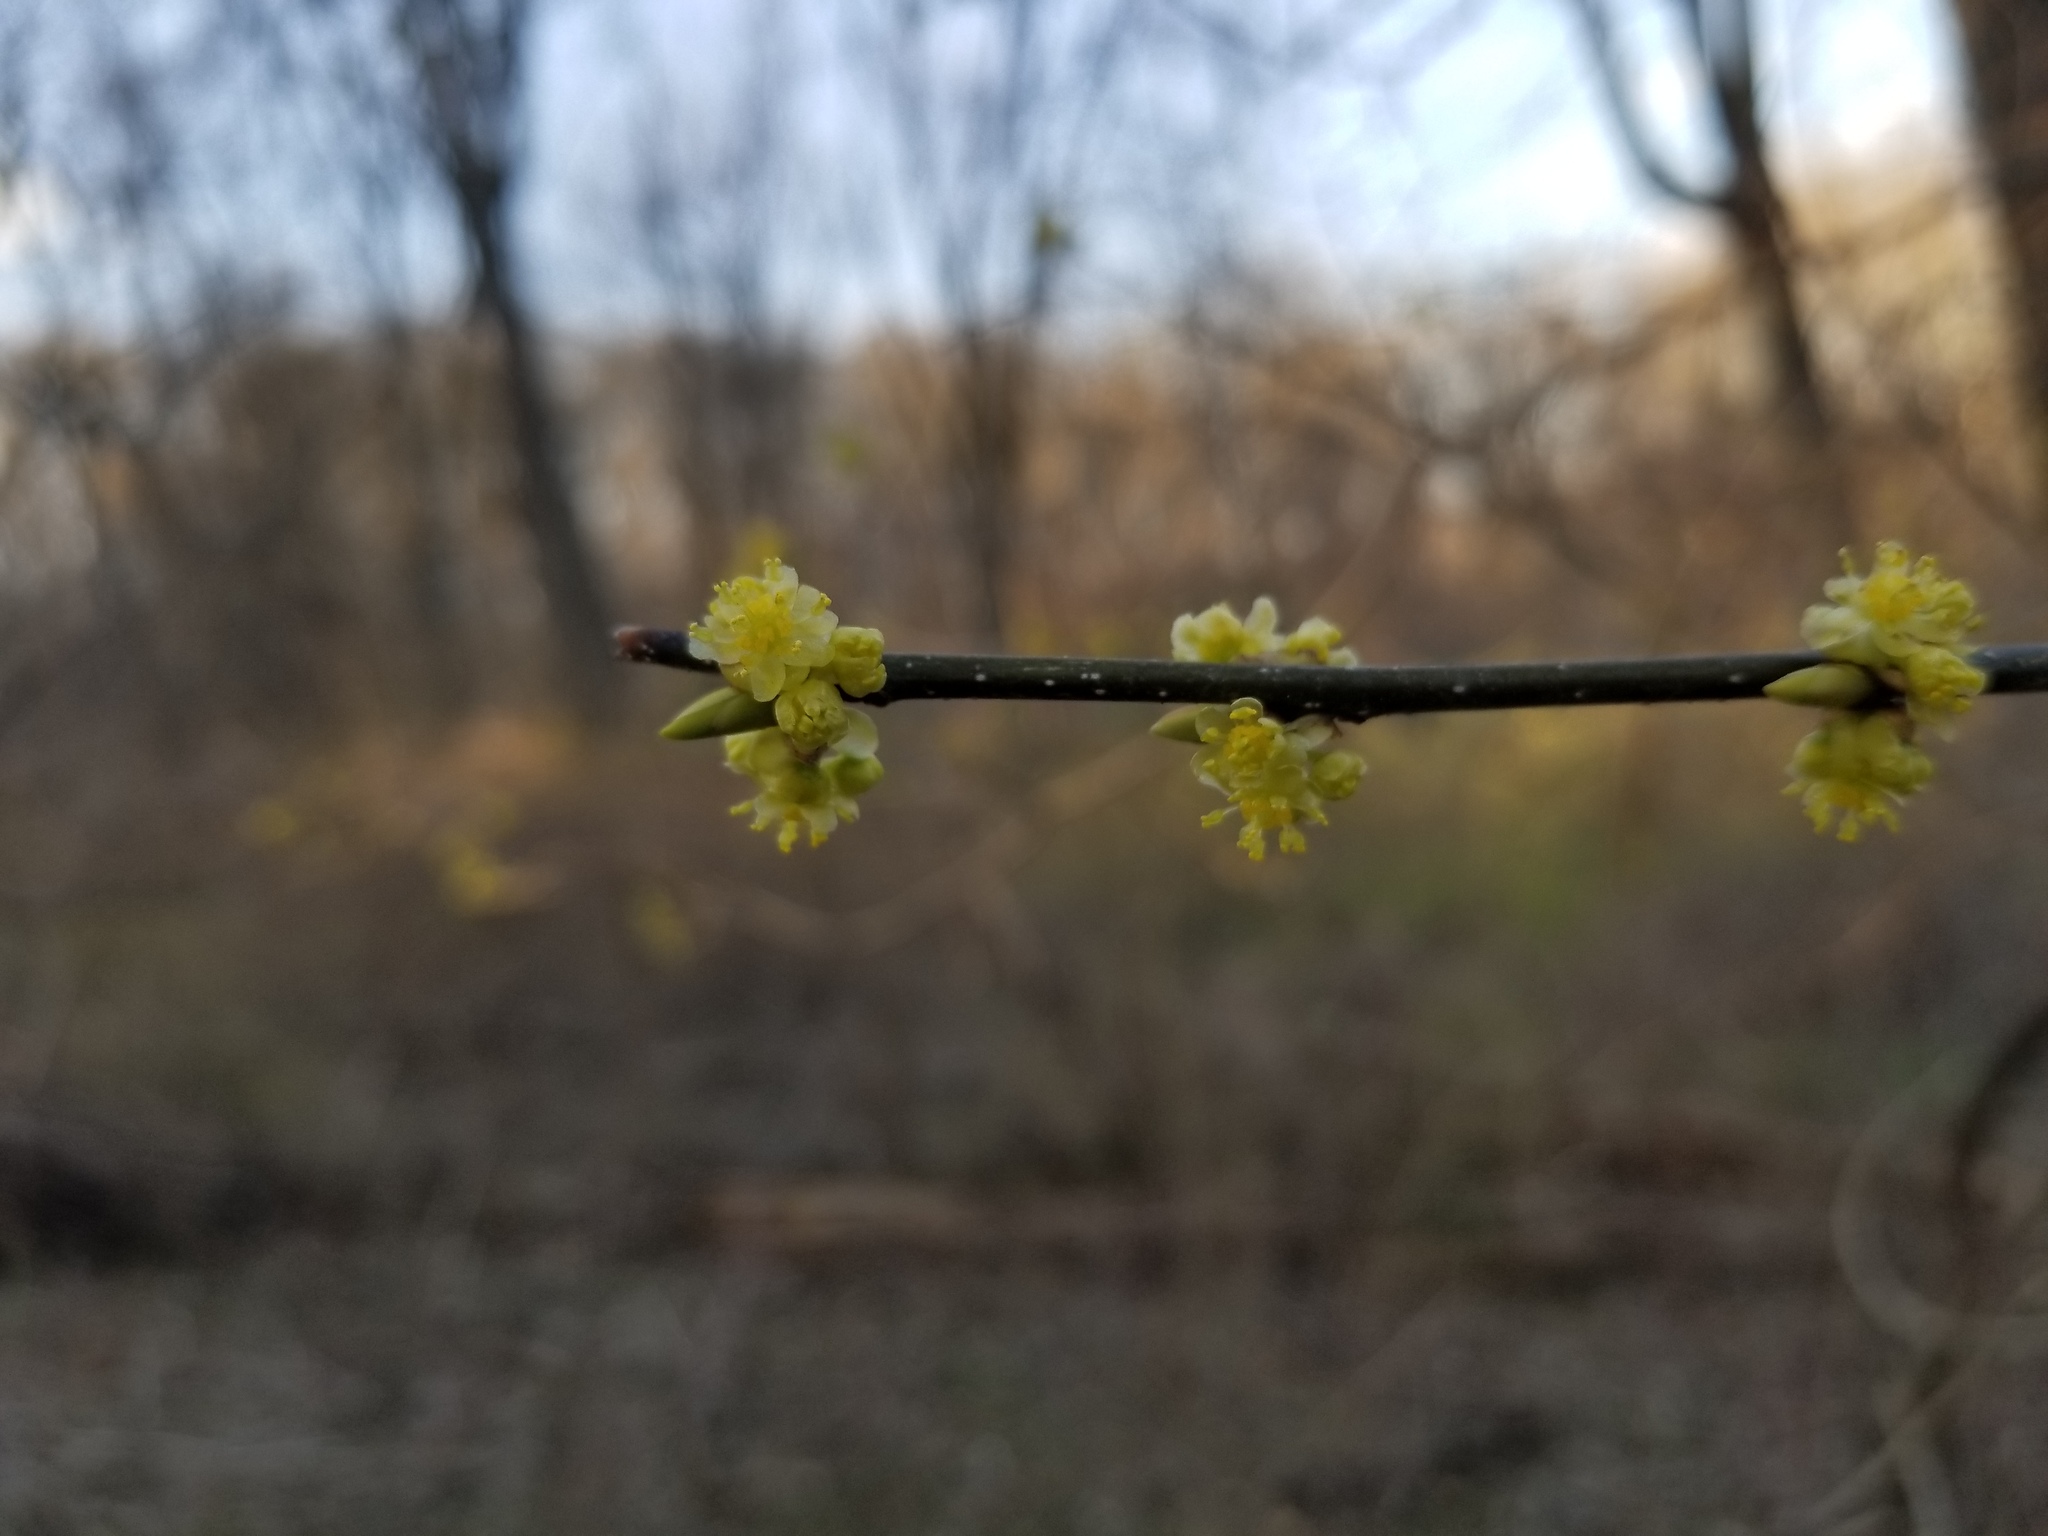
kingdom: Plantae
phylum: Tracheophyta
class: Magnoliopsida
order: Laurales
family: Lauraceae
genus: Lindera
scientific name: Lindera benzoin
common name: Spicebush
